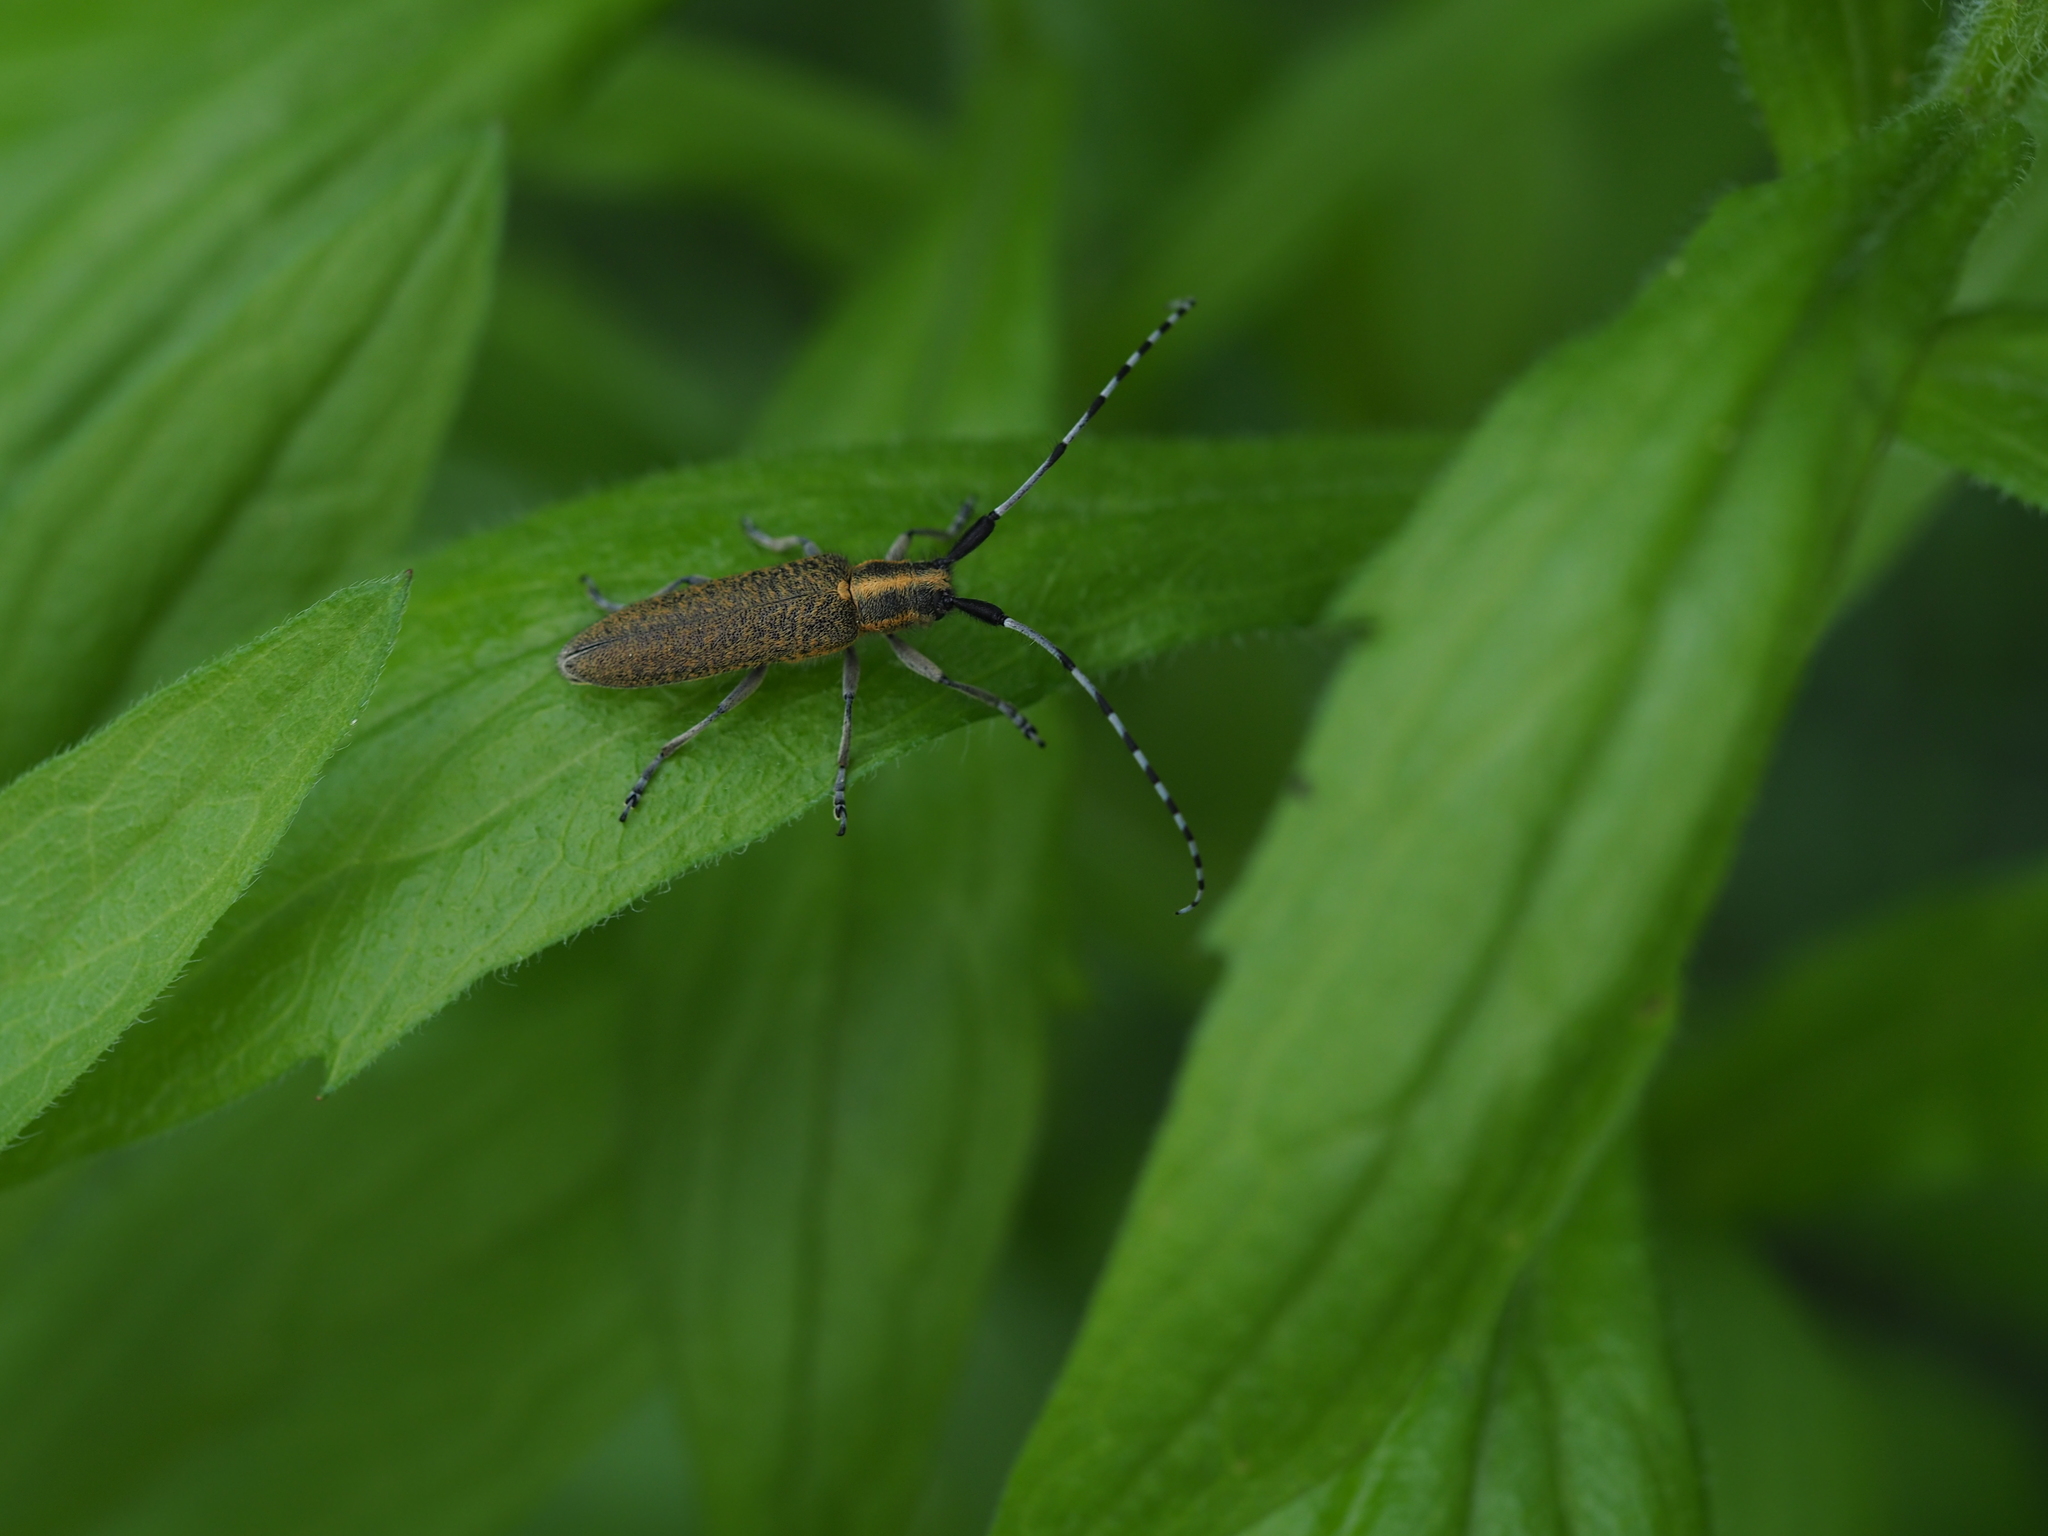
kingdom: Animalia
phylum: Arthropoda
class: Insecta
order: Coleoptera
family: Cerambycidae
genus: Agapanthia
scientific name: Agapanthia villosoviridescens
